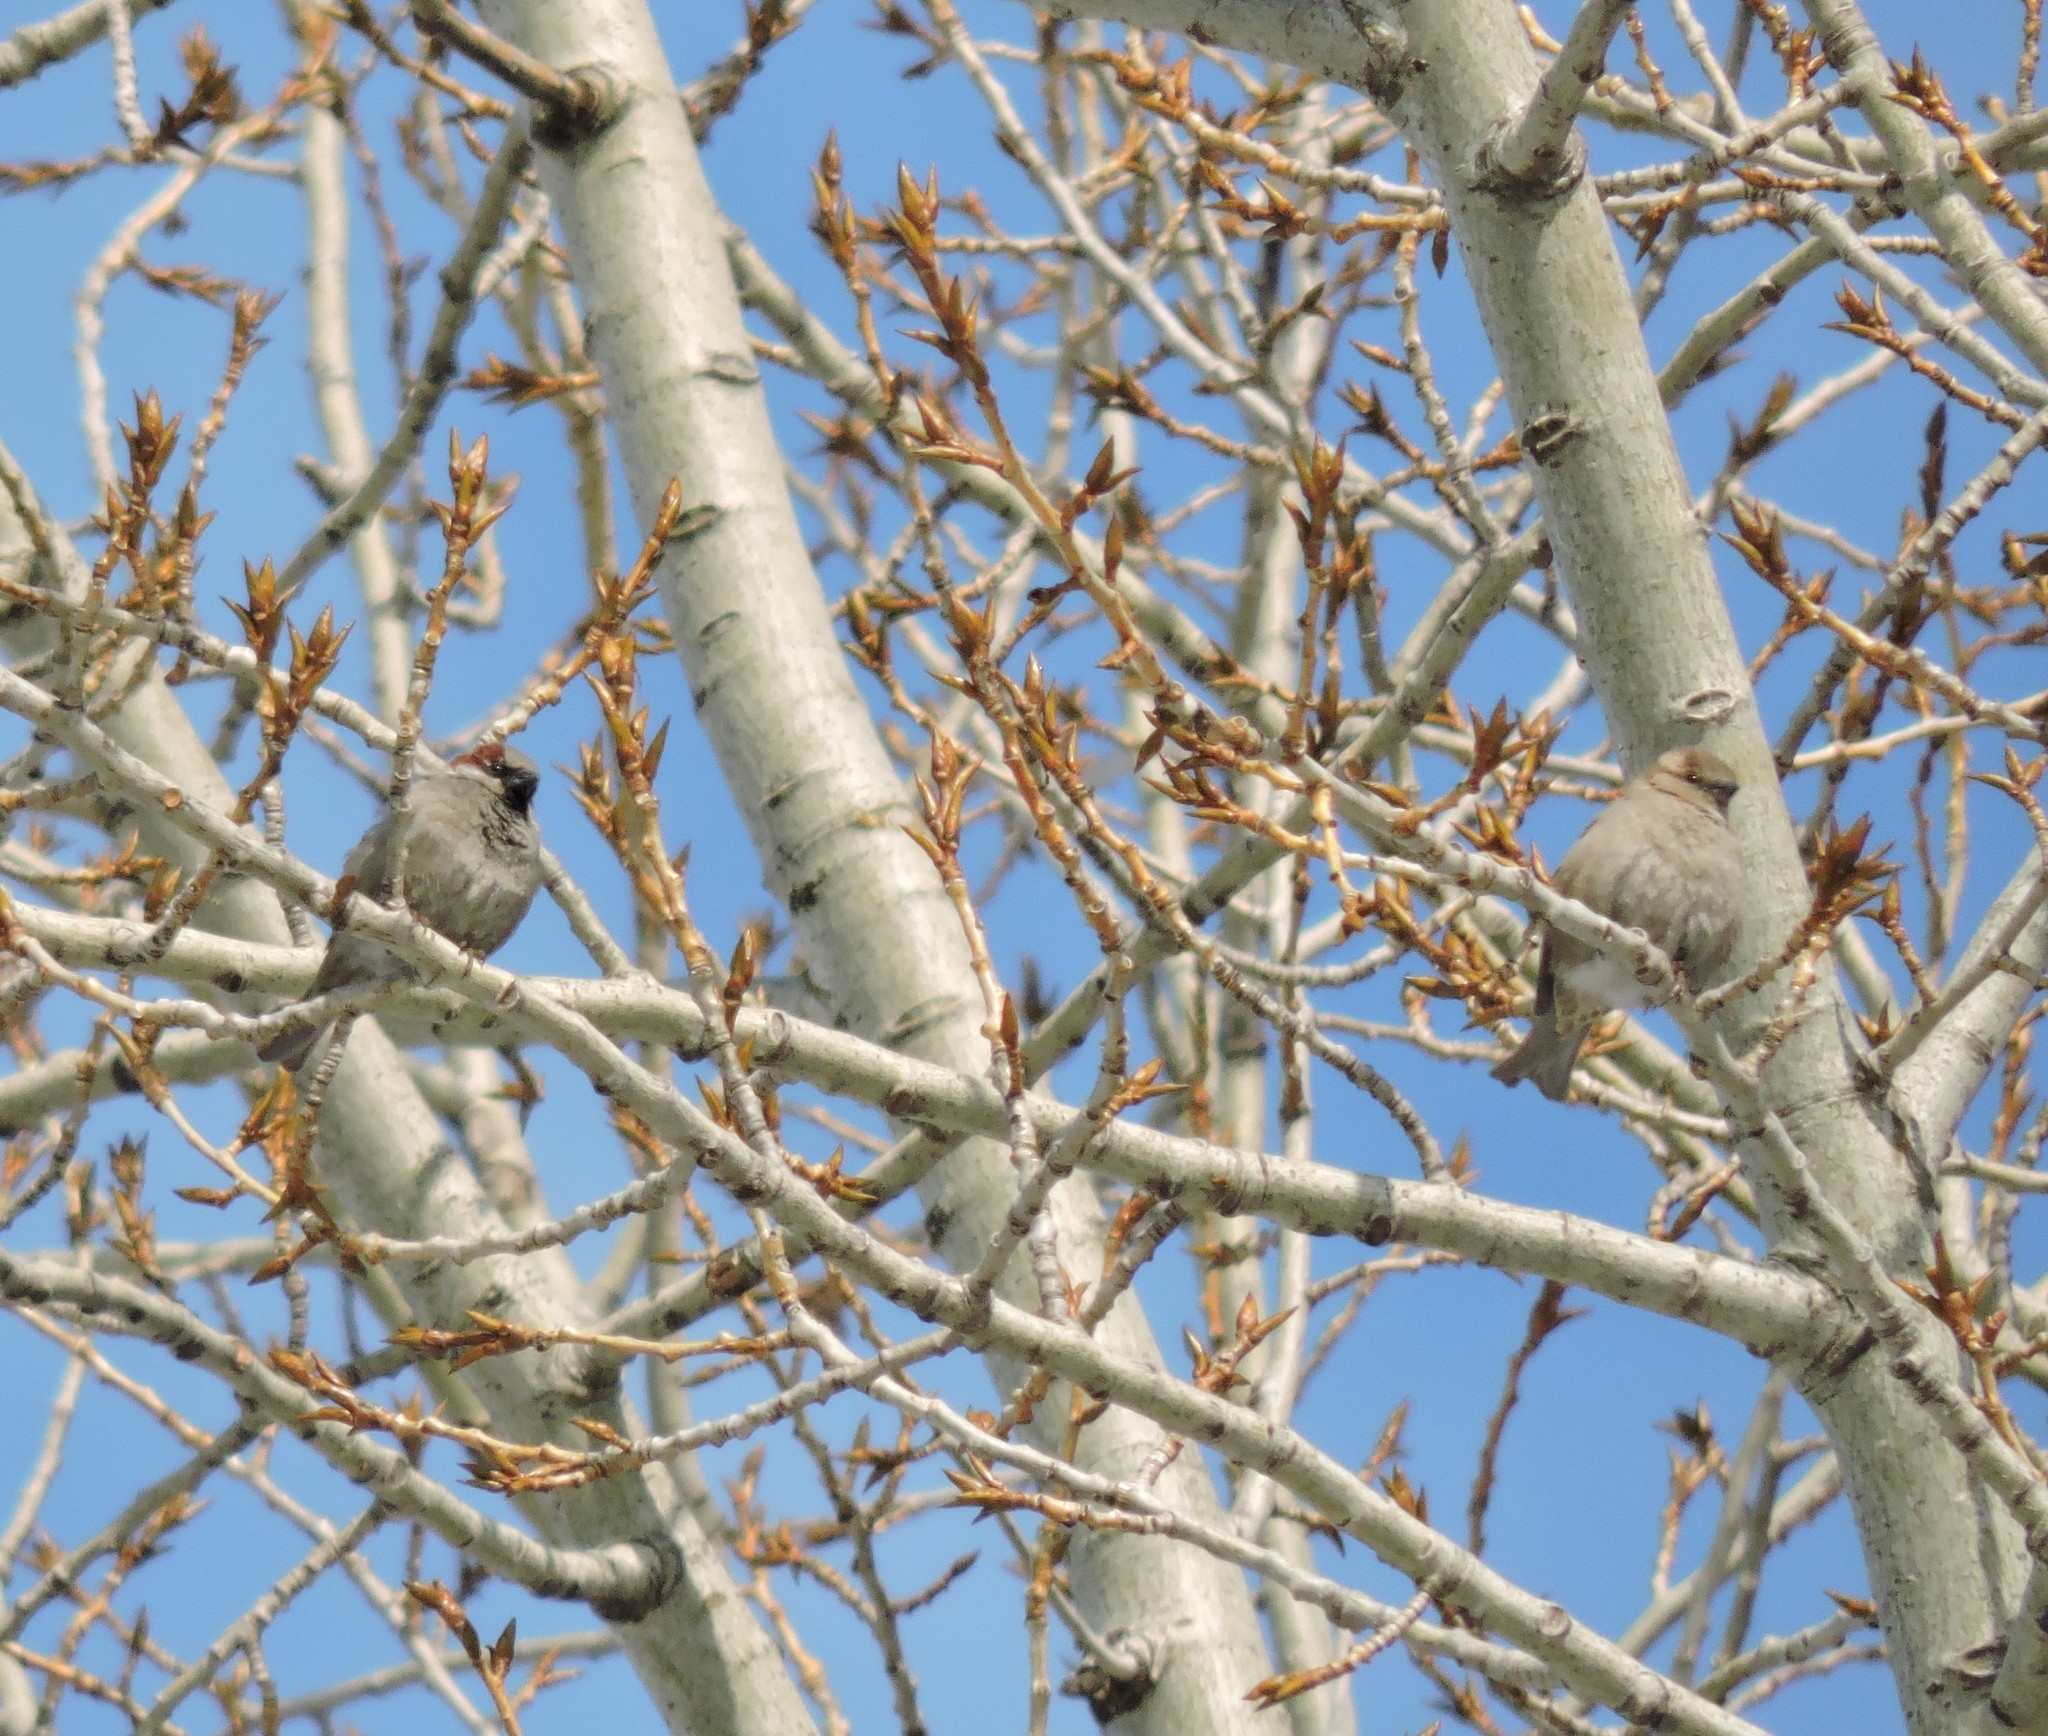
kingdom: Animalia
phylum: Chordata
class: Aves
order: Passeriformes
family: Passeridae
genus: Passer
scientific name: Passer domesticus
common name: House sparrow
